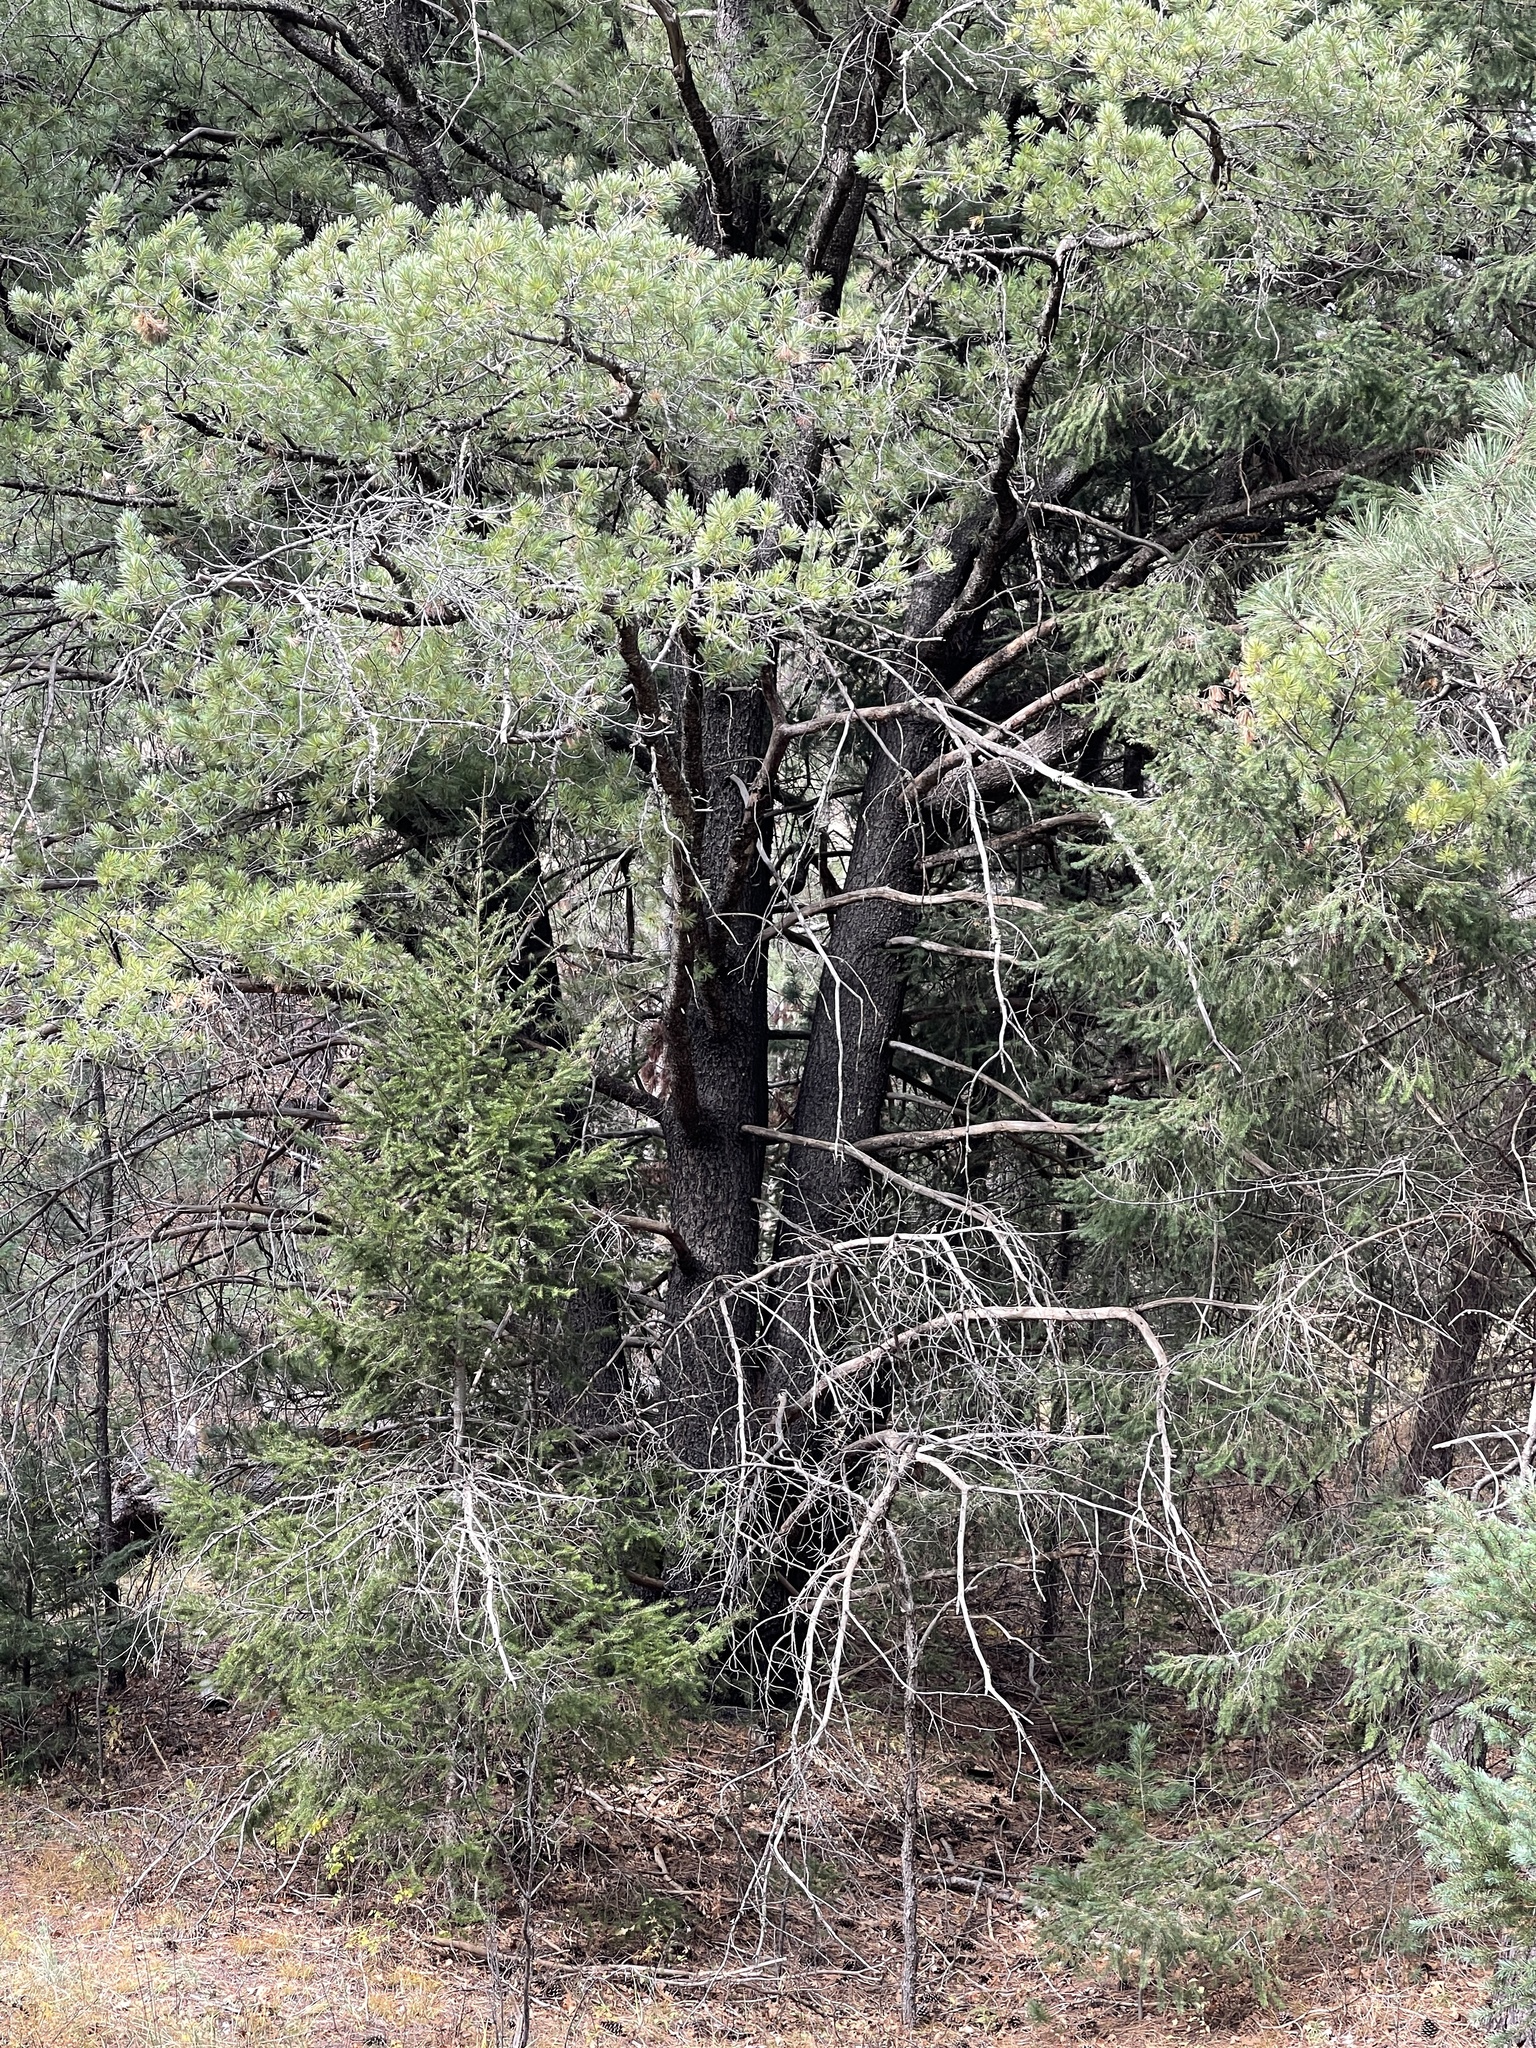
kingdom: Plantae
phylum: Tracheophyta
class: Pinopsida
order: Pinales
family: Pinaceae
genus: Pinus
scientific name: Pinus strobiformis
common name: Southwestern white pine
